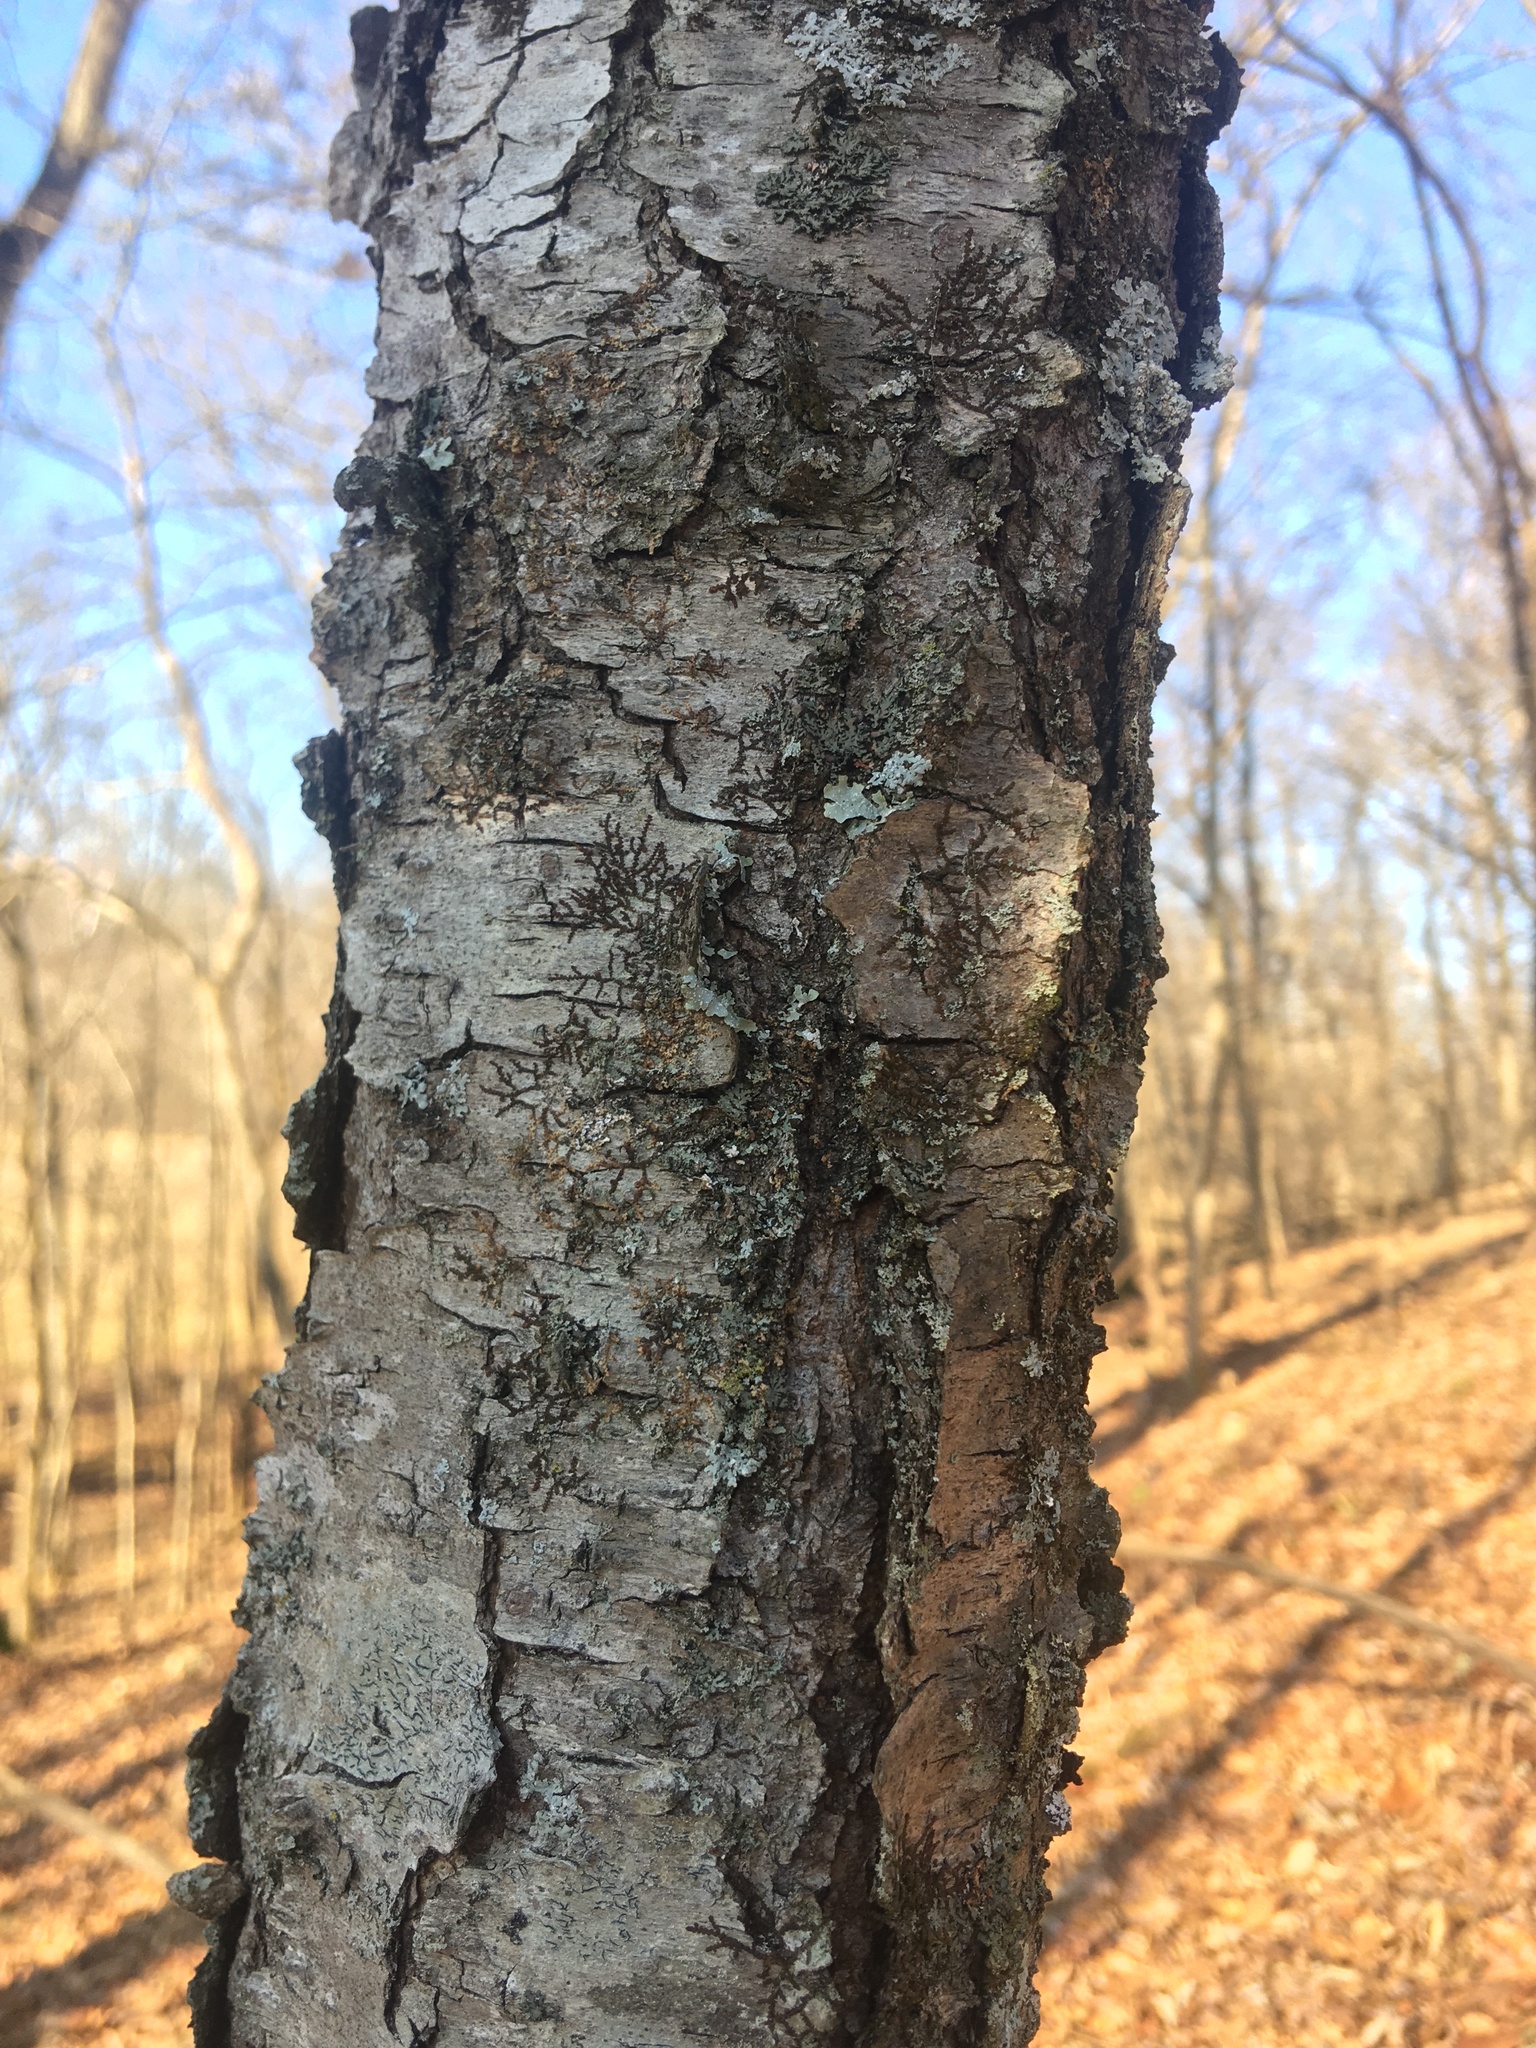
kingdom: Plantae
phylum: Tracheophyta
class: Magnoliopsida
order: Rosales
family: Rosaceae
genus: Prunus
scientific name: Prunus serotina
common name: Black cherry
